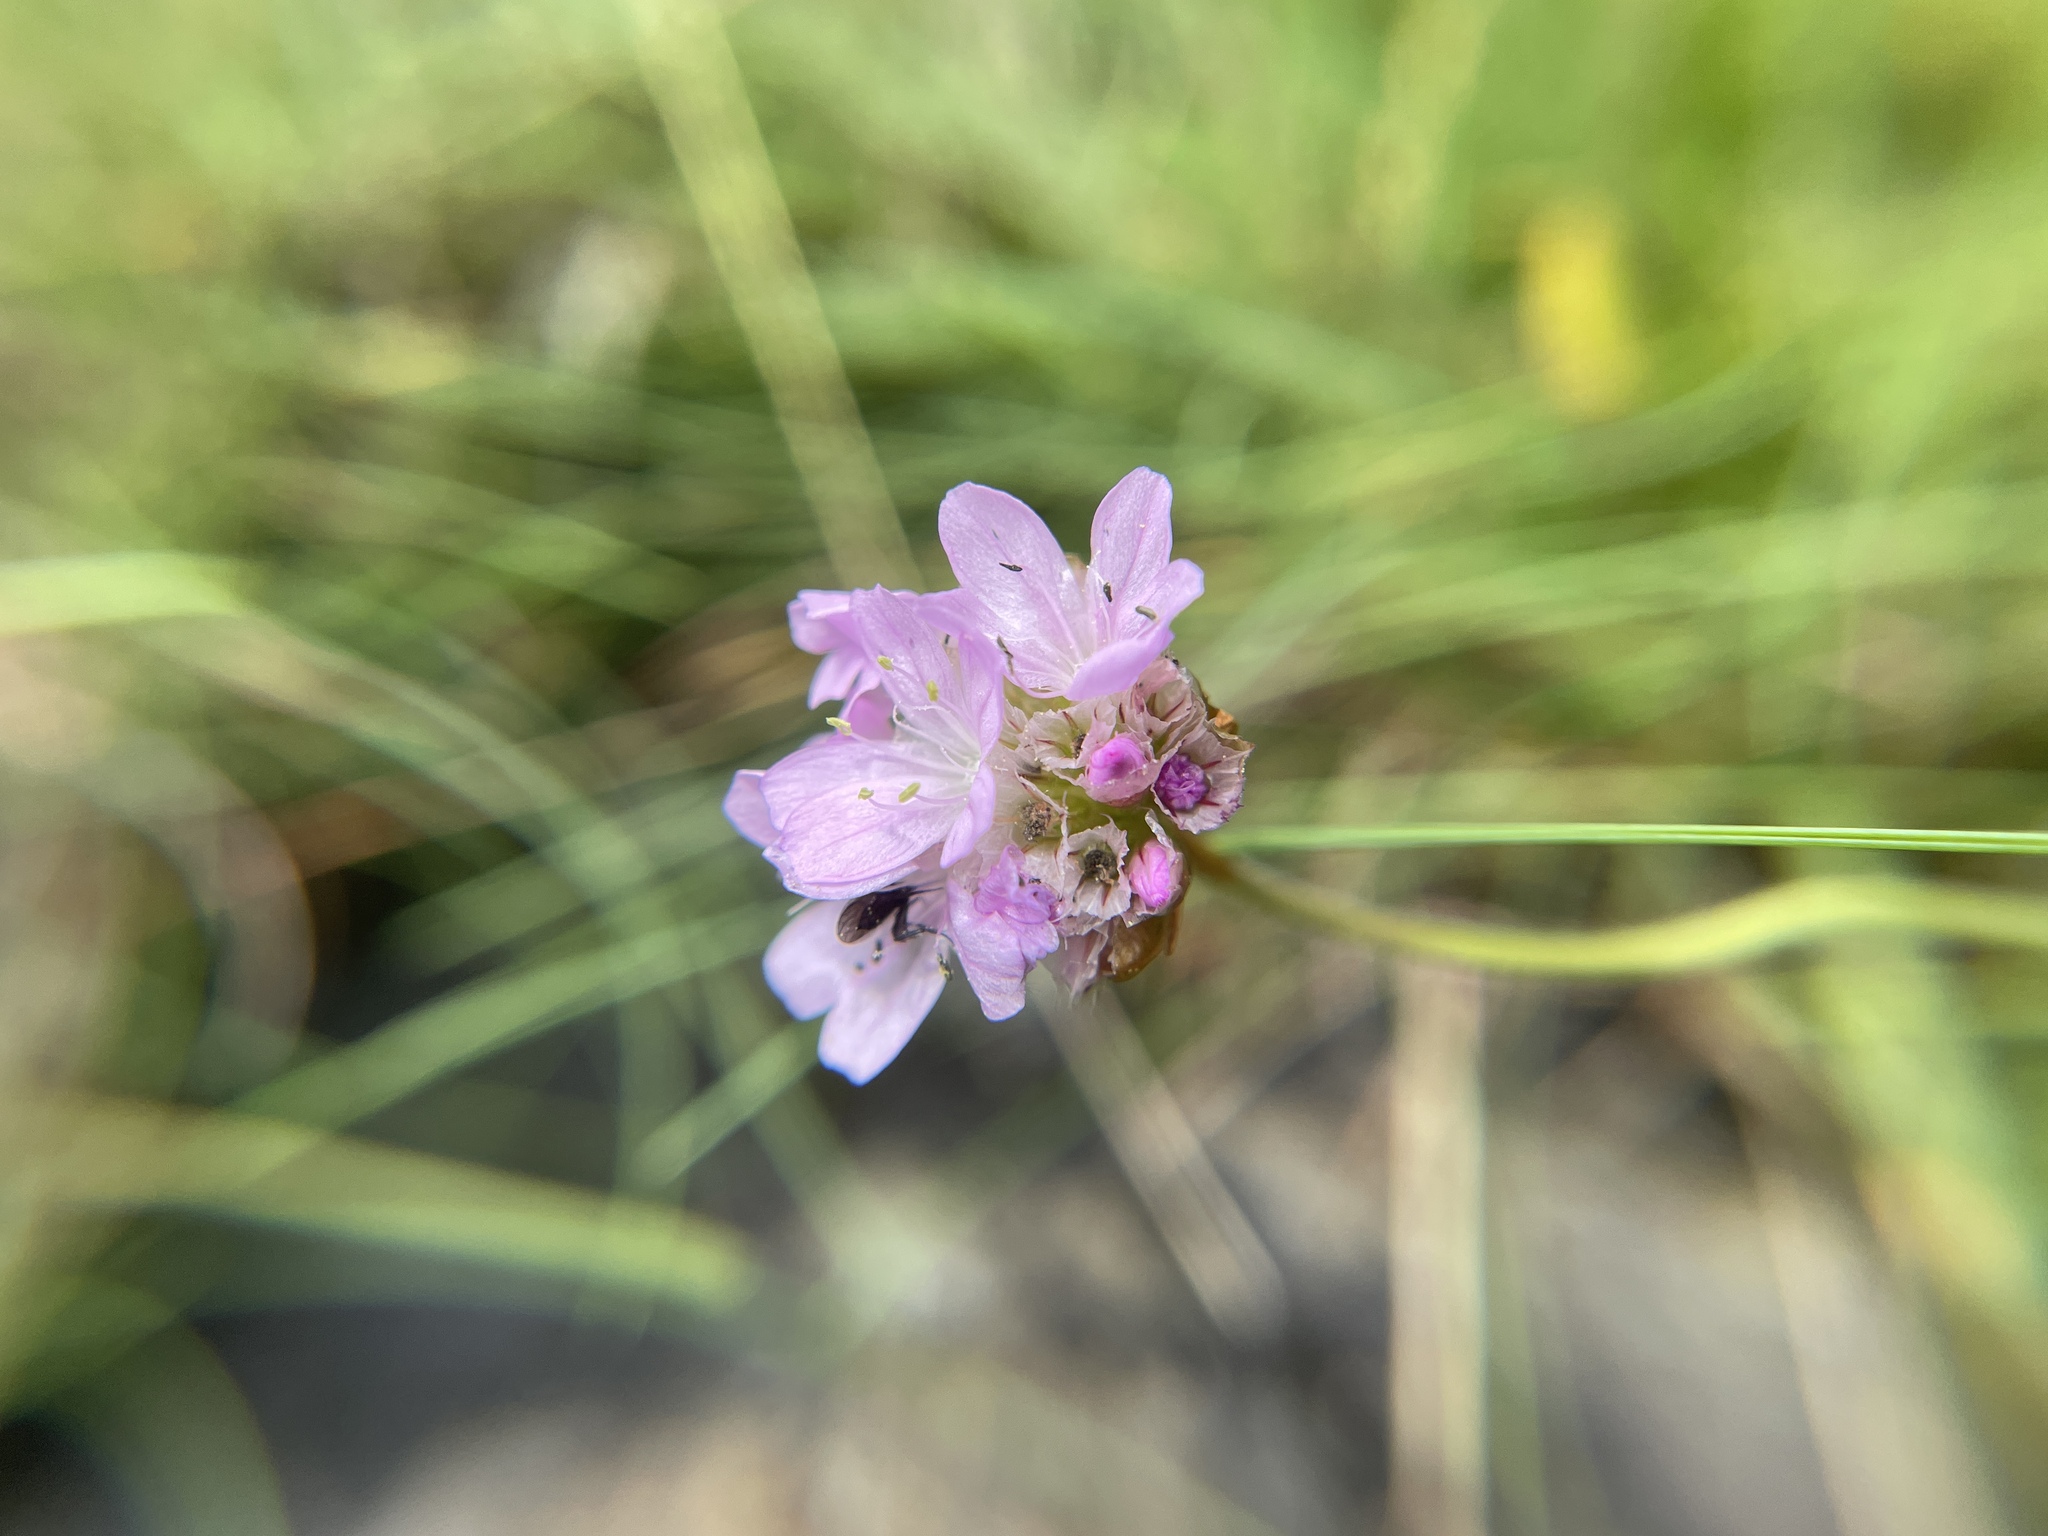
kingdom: Plantae
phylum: Tracheophyta
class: Magnoliopsida
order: Caryophyllales
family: Plumbaginaceae
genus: Armeria
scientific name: Armeria maritima
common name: Thrift
